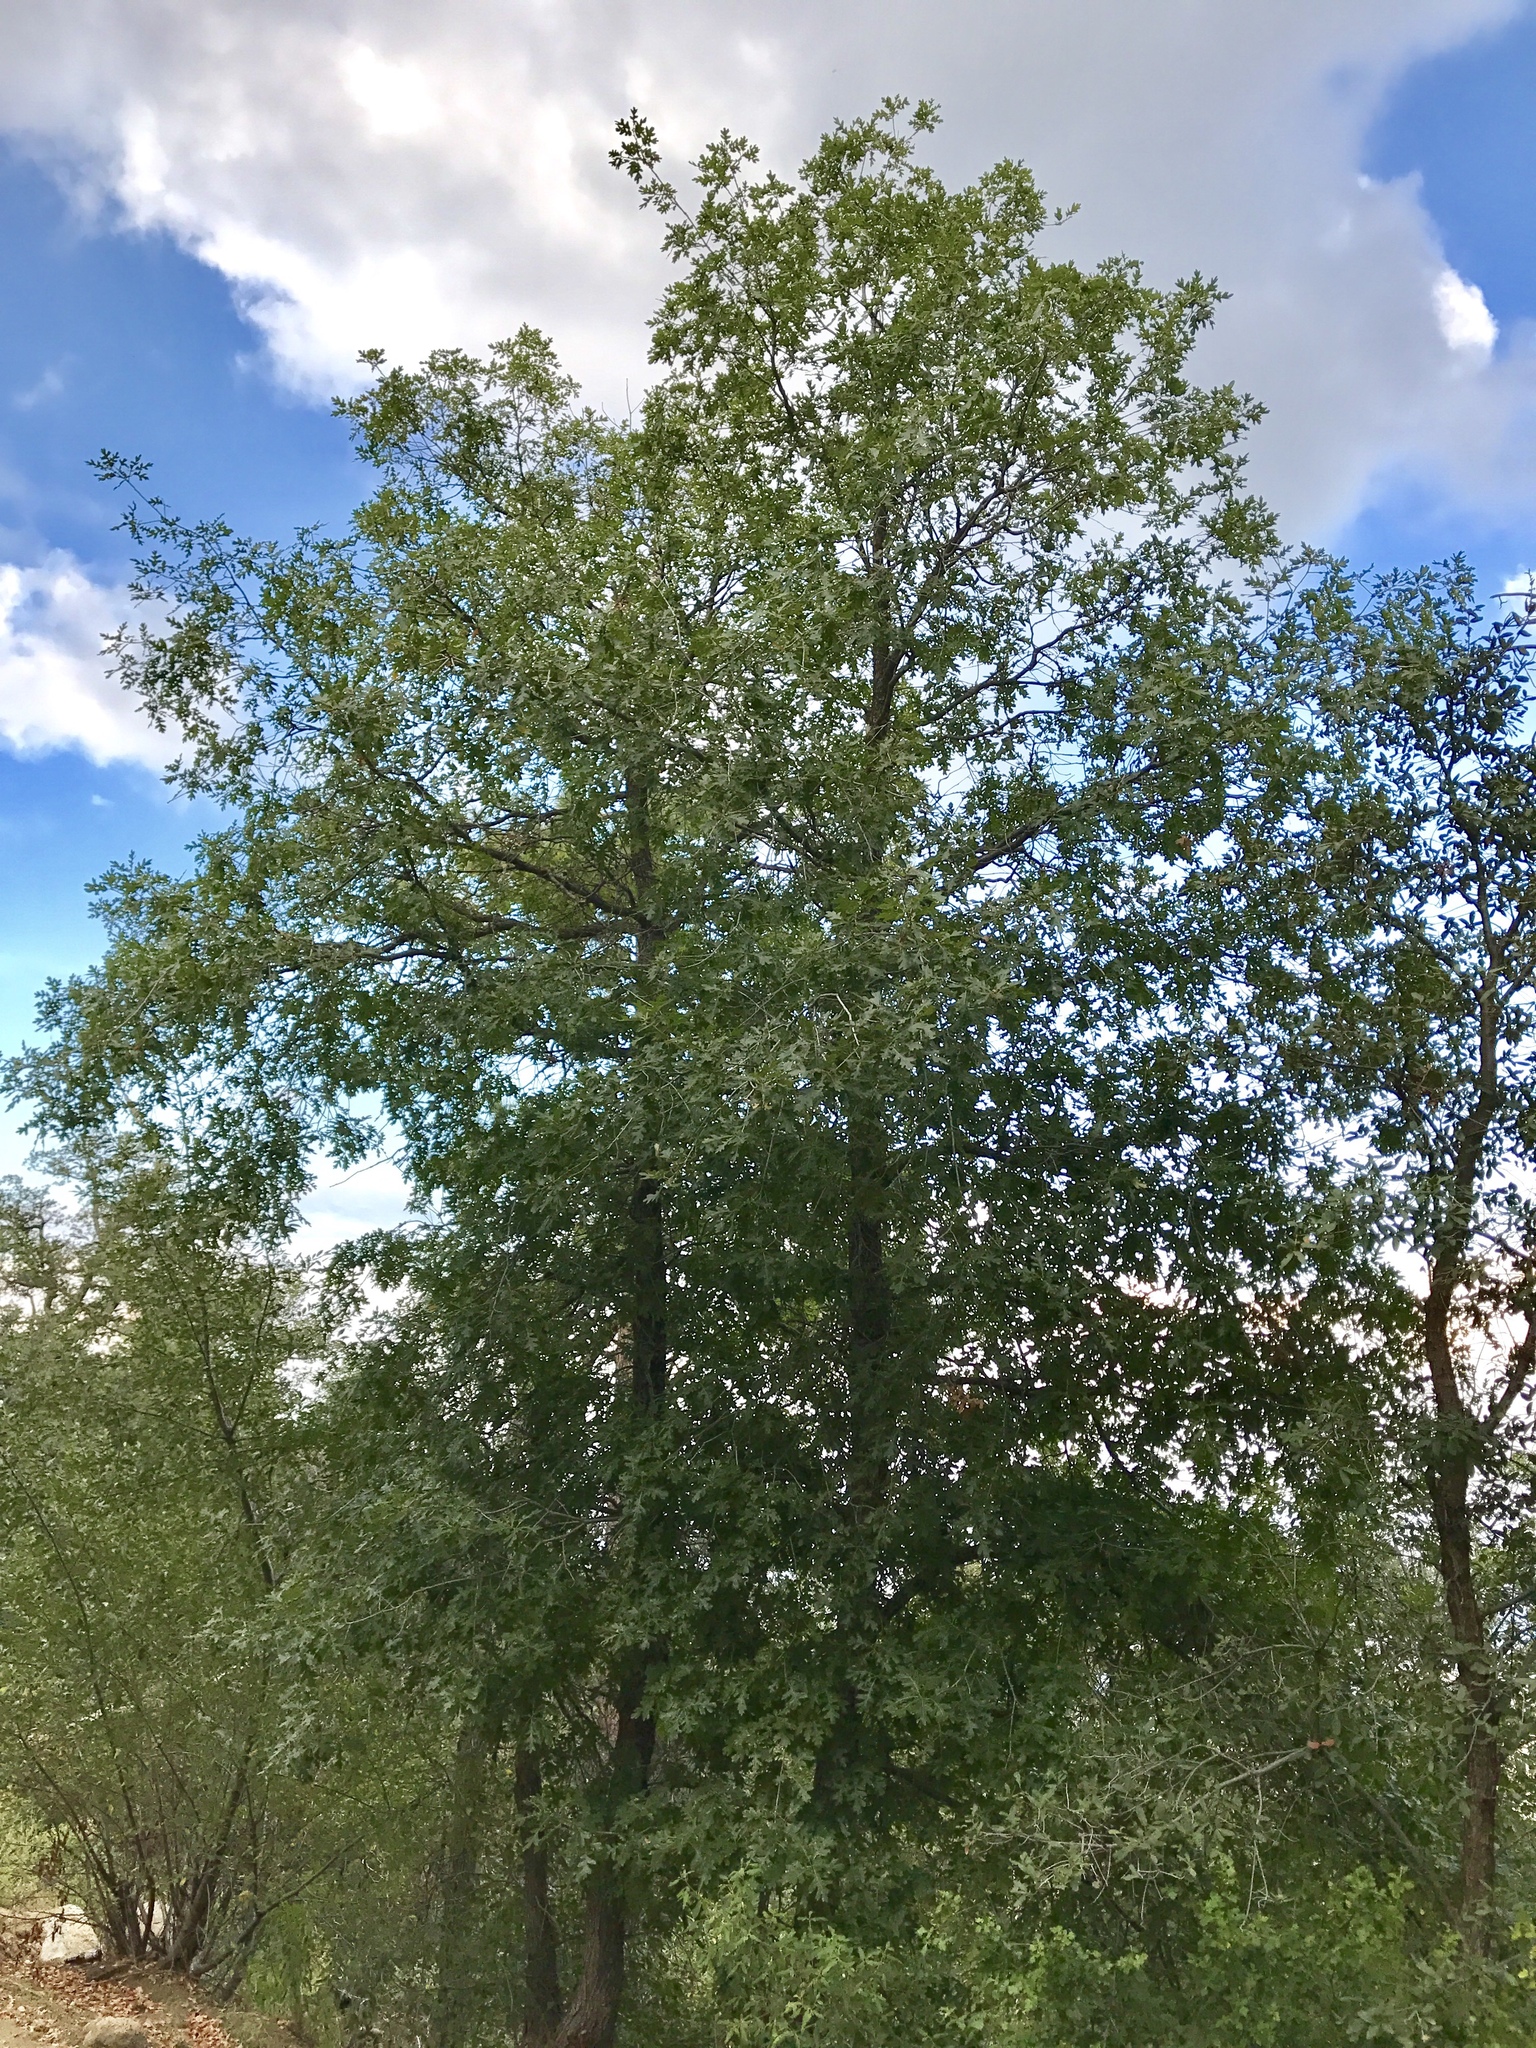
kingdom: Plantae
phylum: Tracheophyta
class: Magnoliopsida
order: Fagales
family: Fagaceae
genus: Quercus
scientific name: Quercus gambelii
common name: Gambel oak
